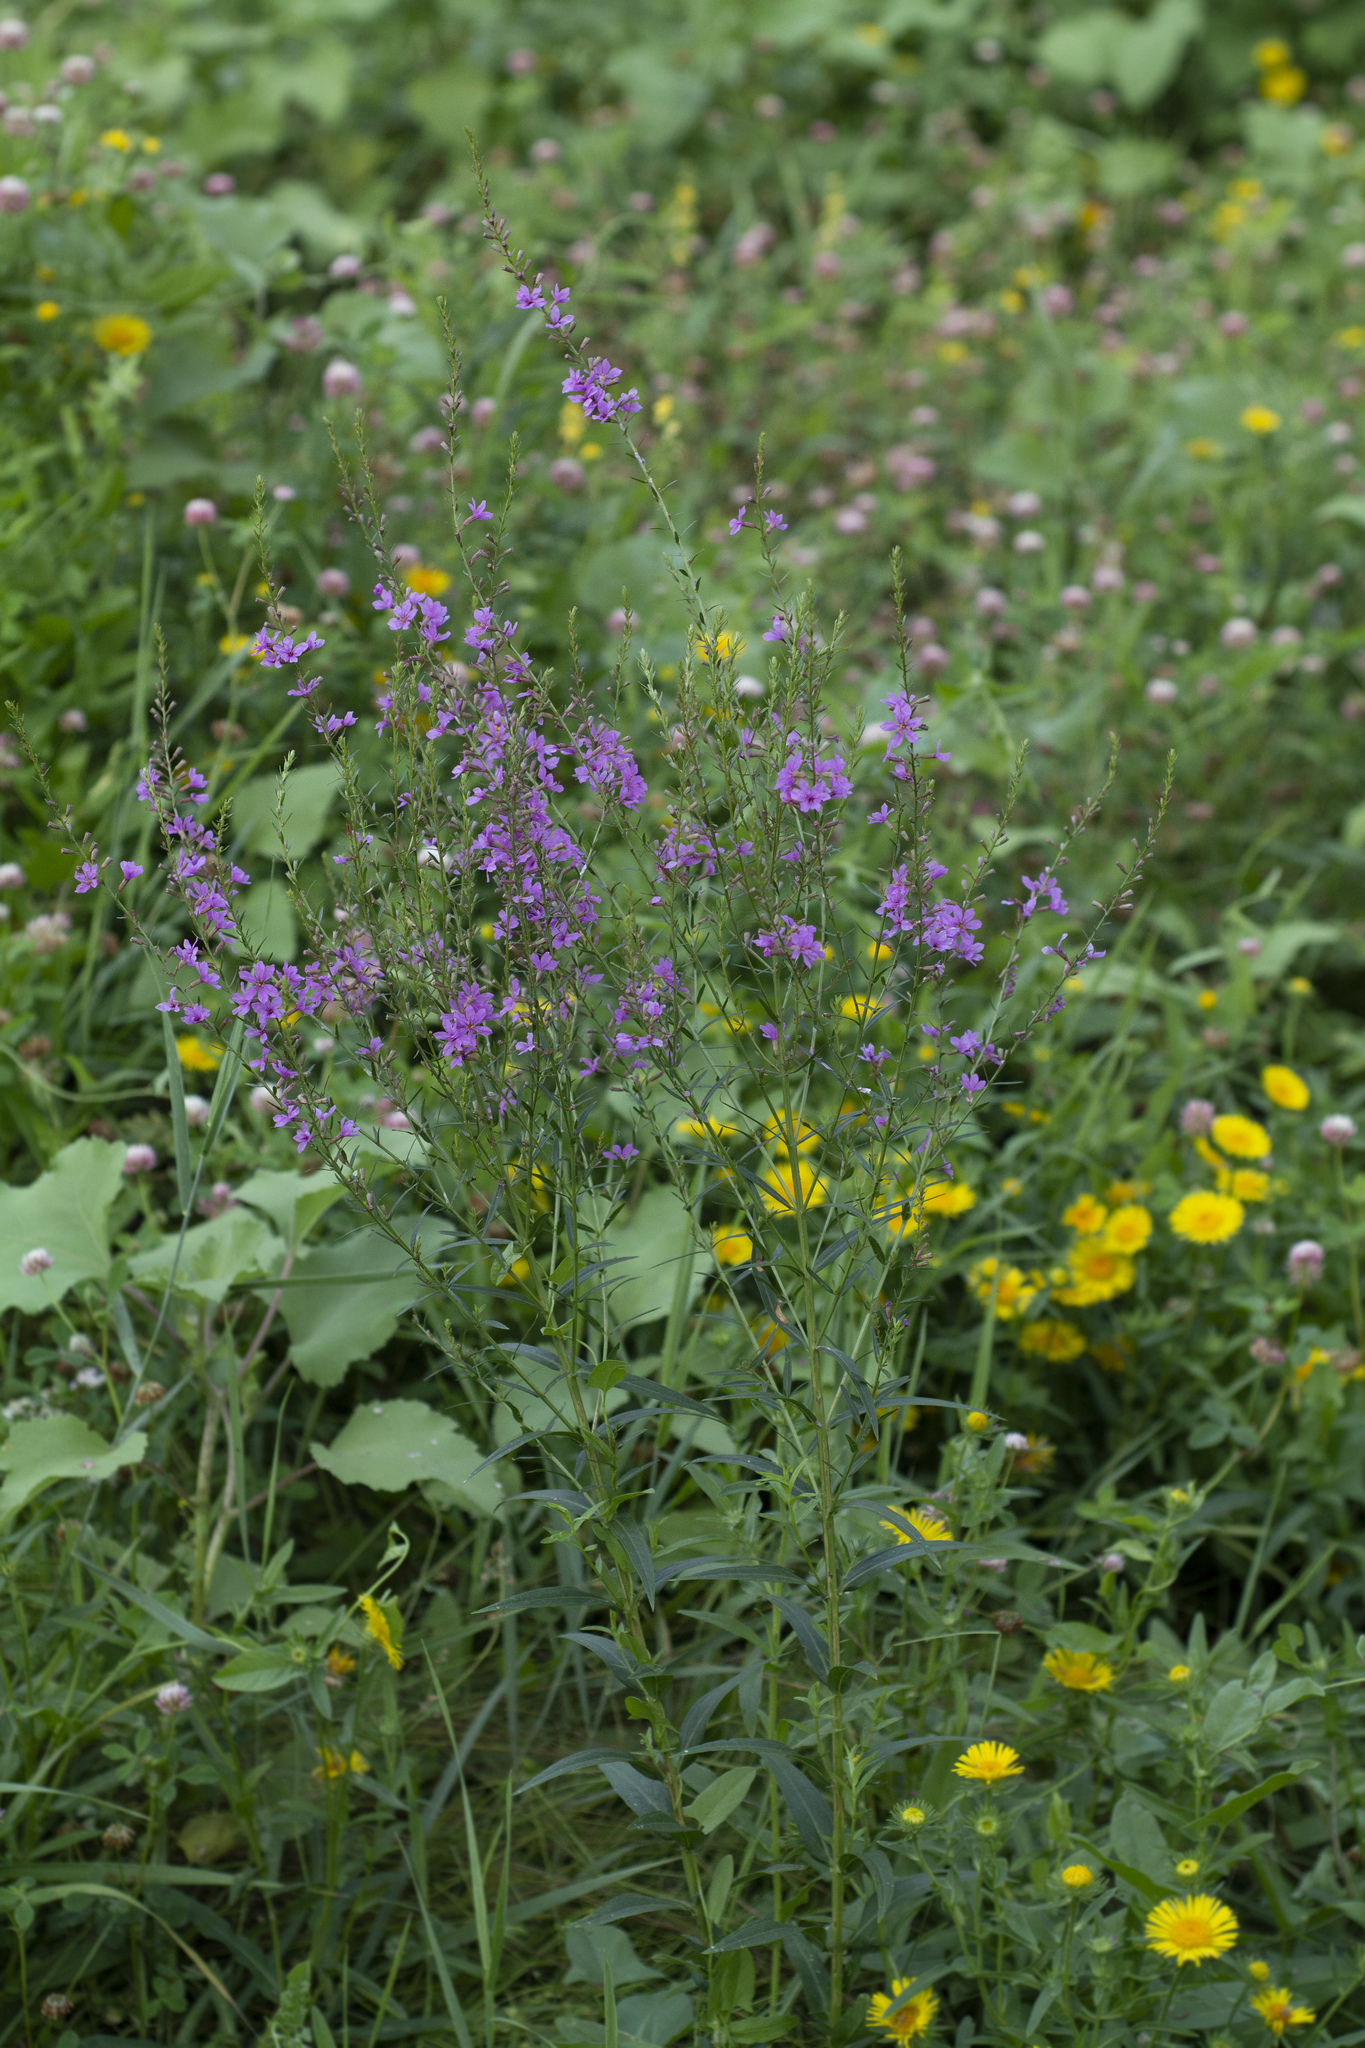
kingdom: Plantae
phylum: Tracheophyta
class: Magnoliopsida
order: Myrtales
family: Lythraceae
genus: Lythrum
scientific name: Lythrum virgatum
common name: European wand loosestrife
